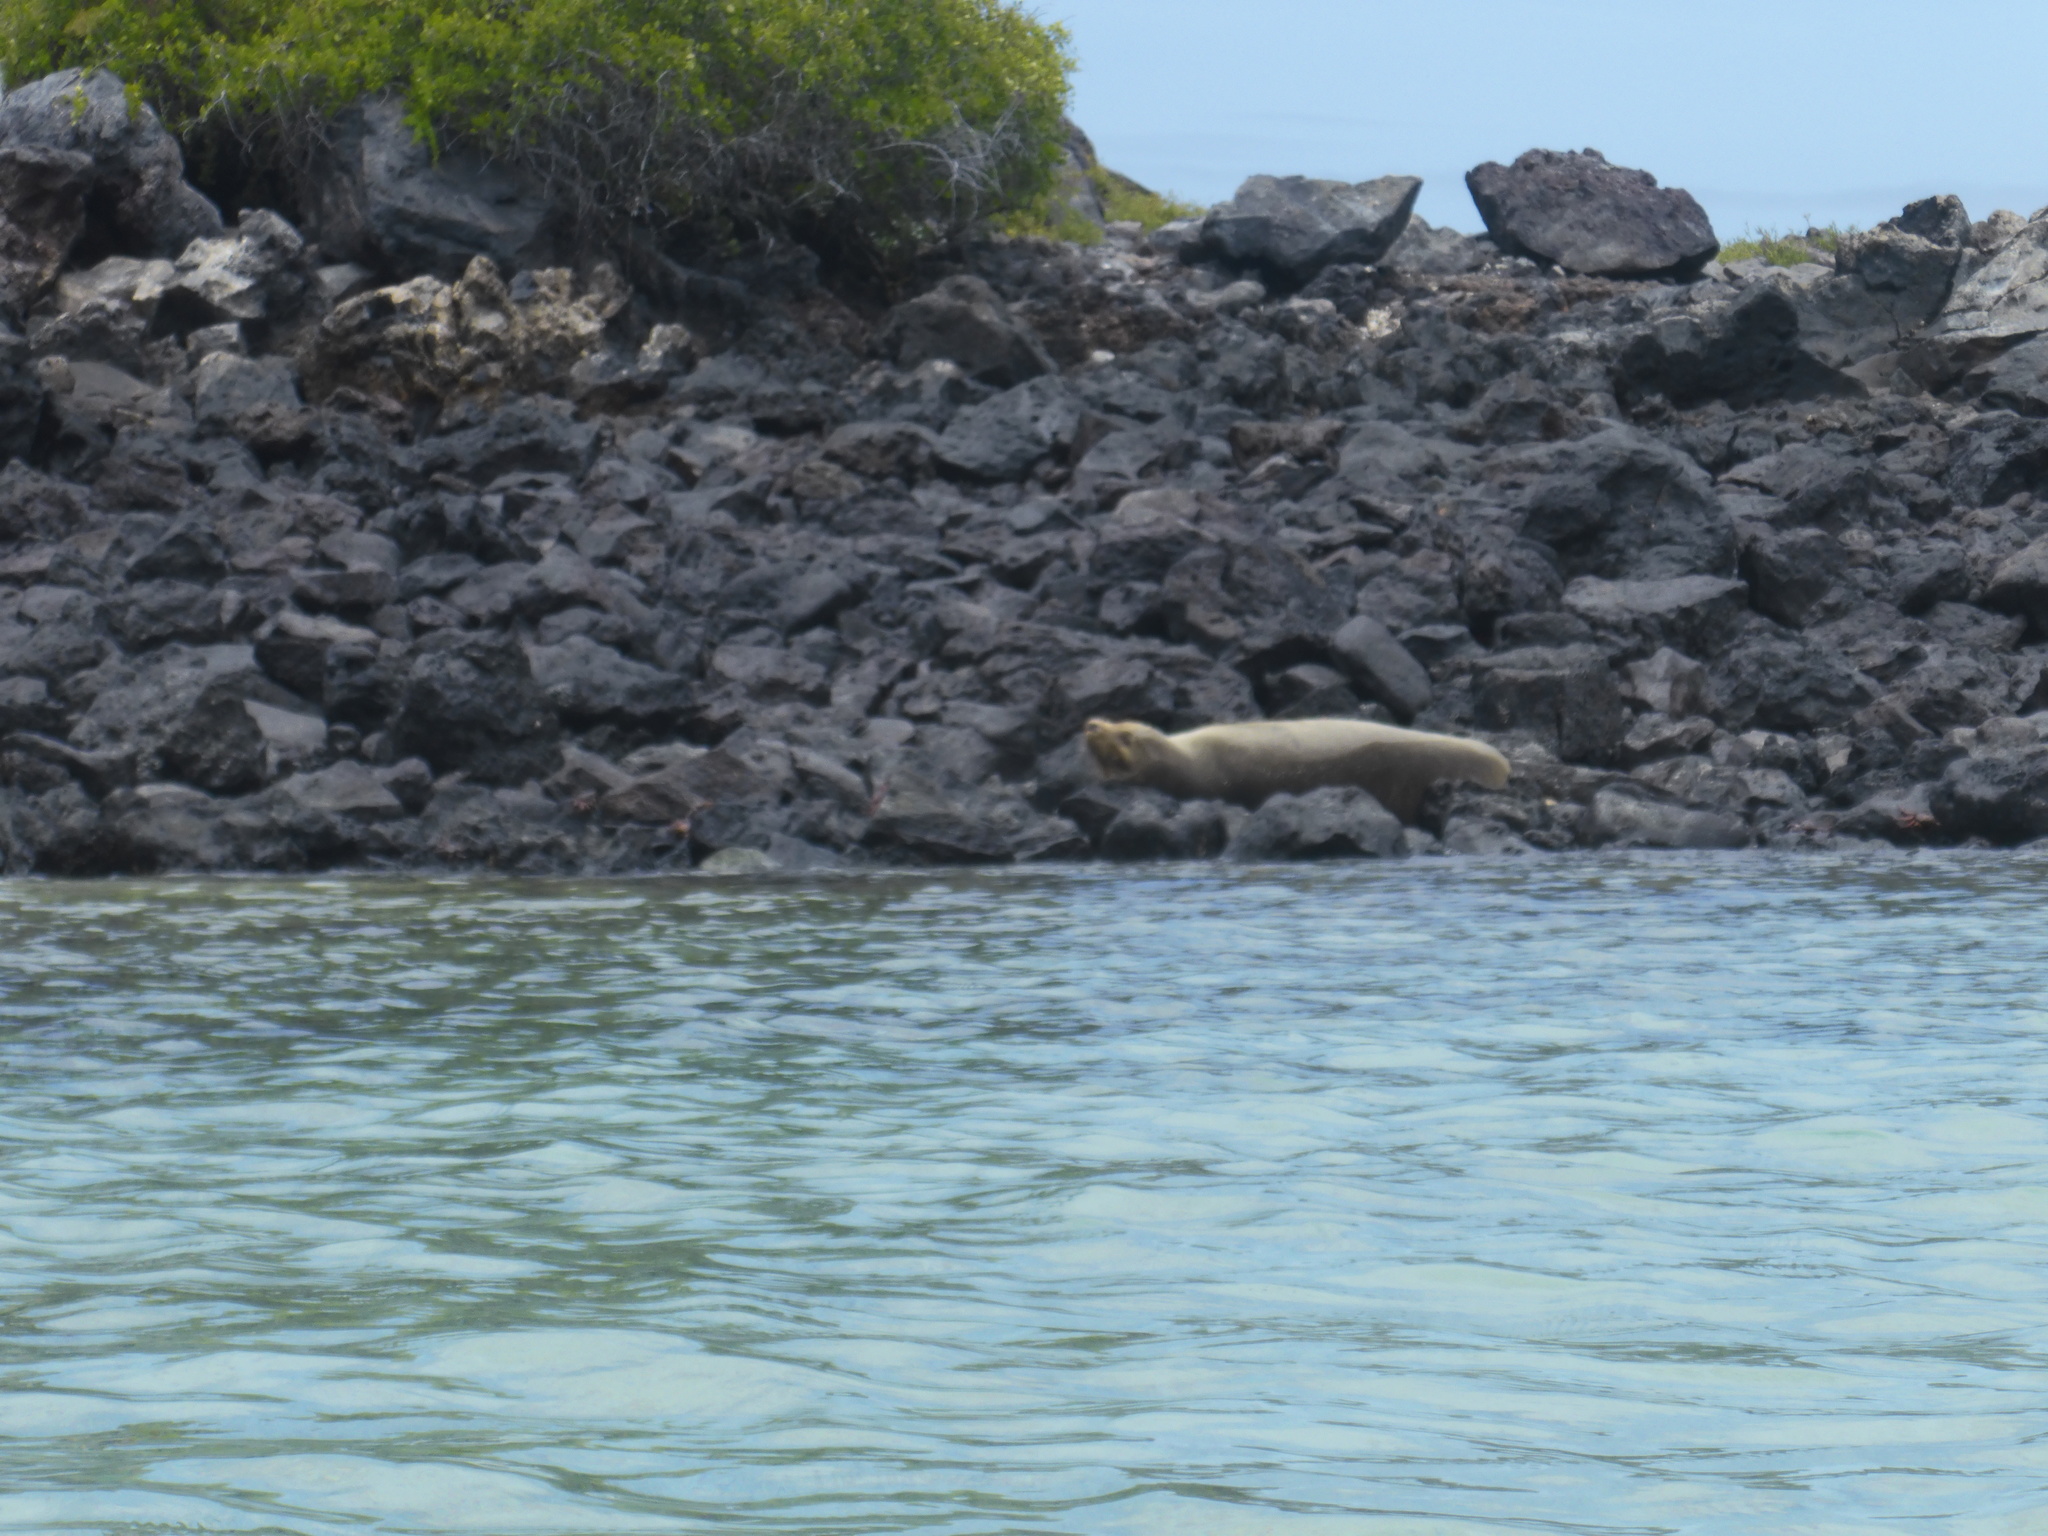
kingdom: Animalia
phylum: Chordata
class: Mammalia
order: Carnivora
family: Otariidae
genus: Zalophus
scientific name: Zalophus wollebaeki
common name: Galapagos sea lion
